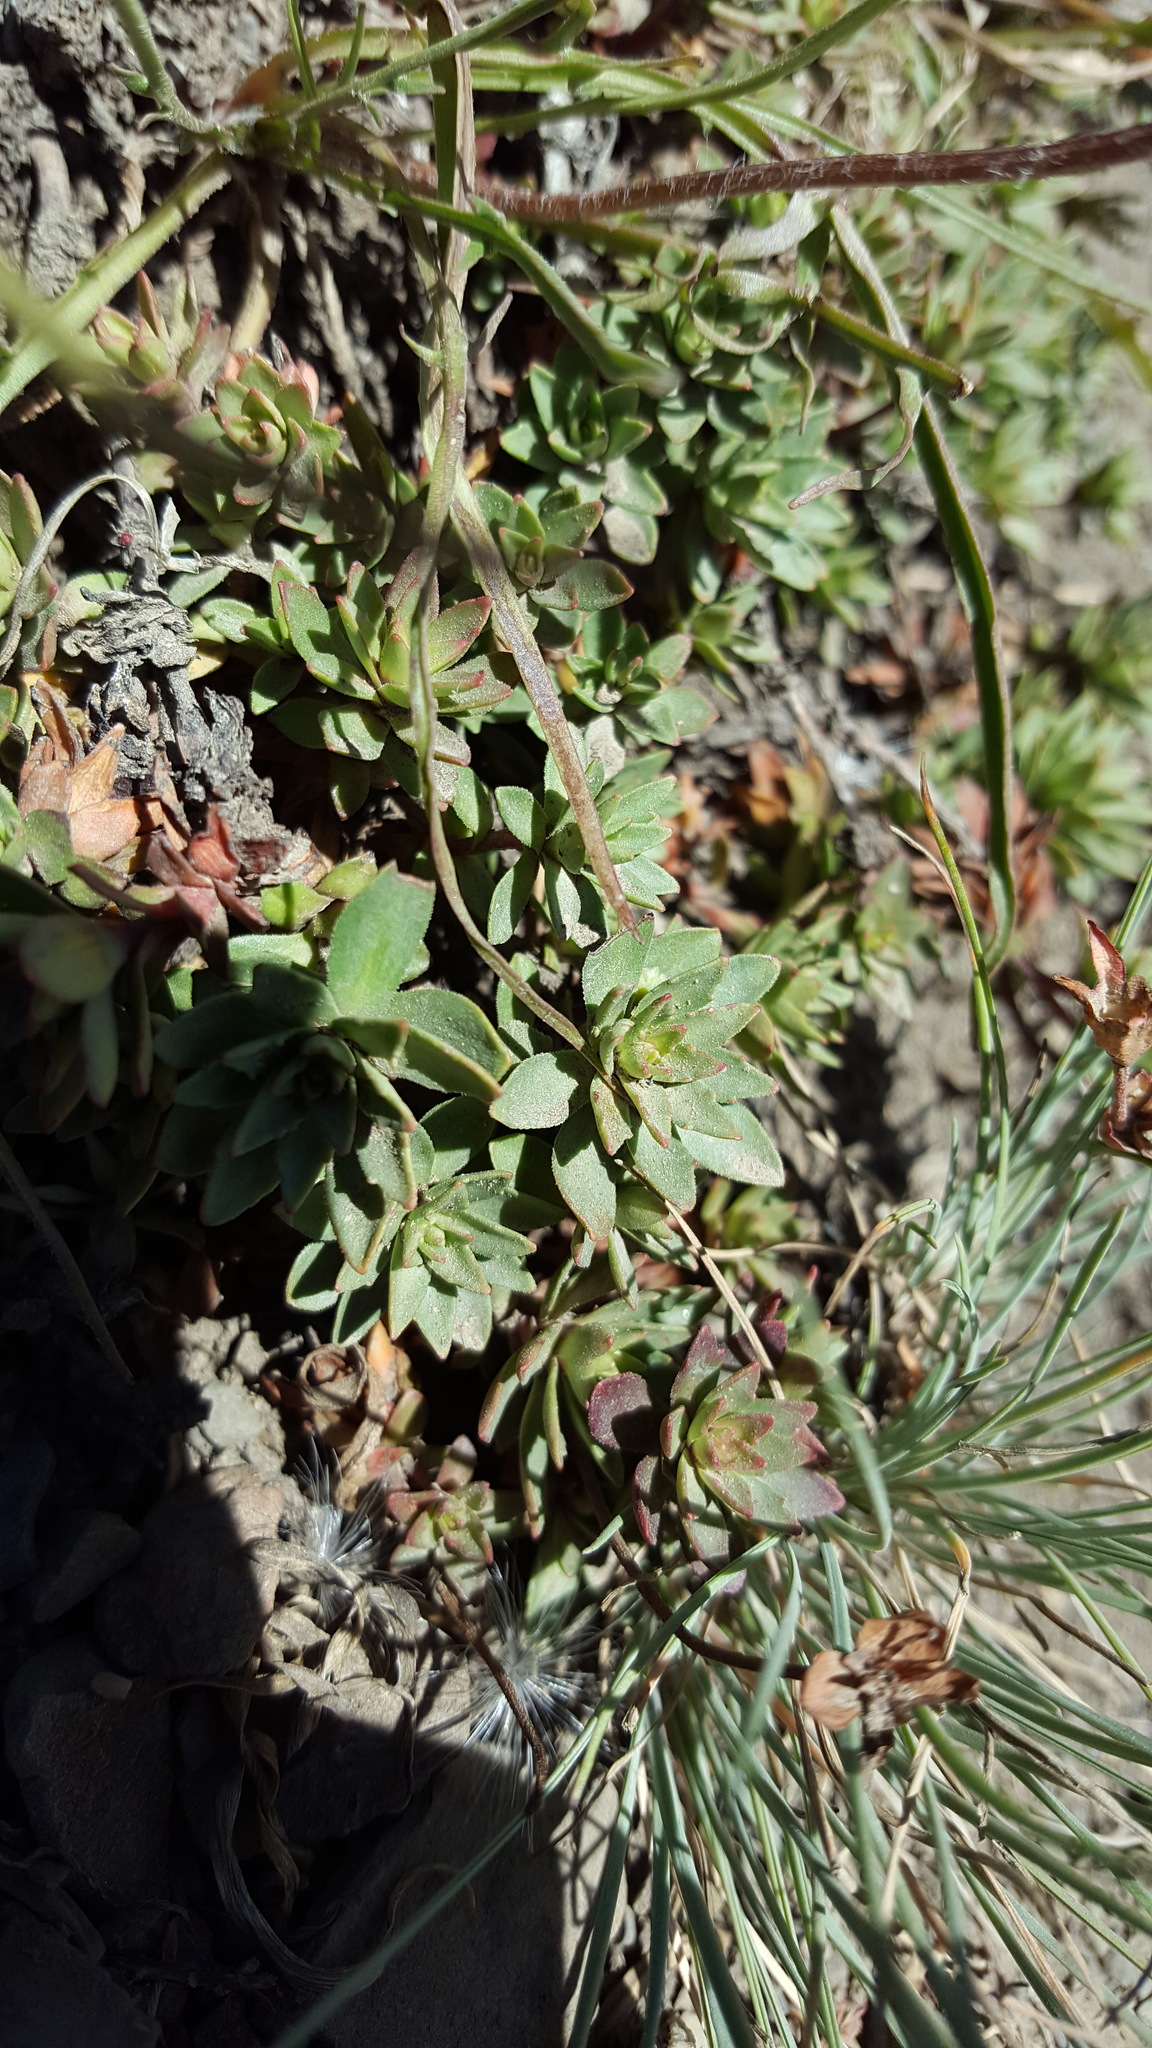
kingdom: Plantae
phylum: Tracheophyta
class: Magnoliopsida
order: Ericales
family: Primulaceae
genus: Androsace
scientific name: Androsace laevigata
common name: Cliff dwarf-primrose
